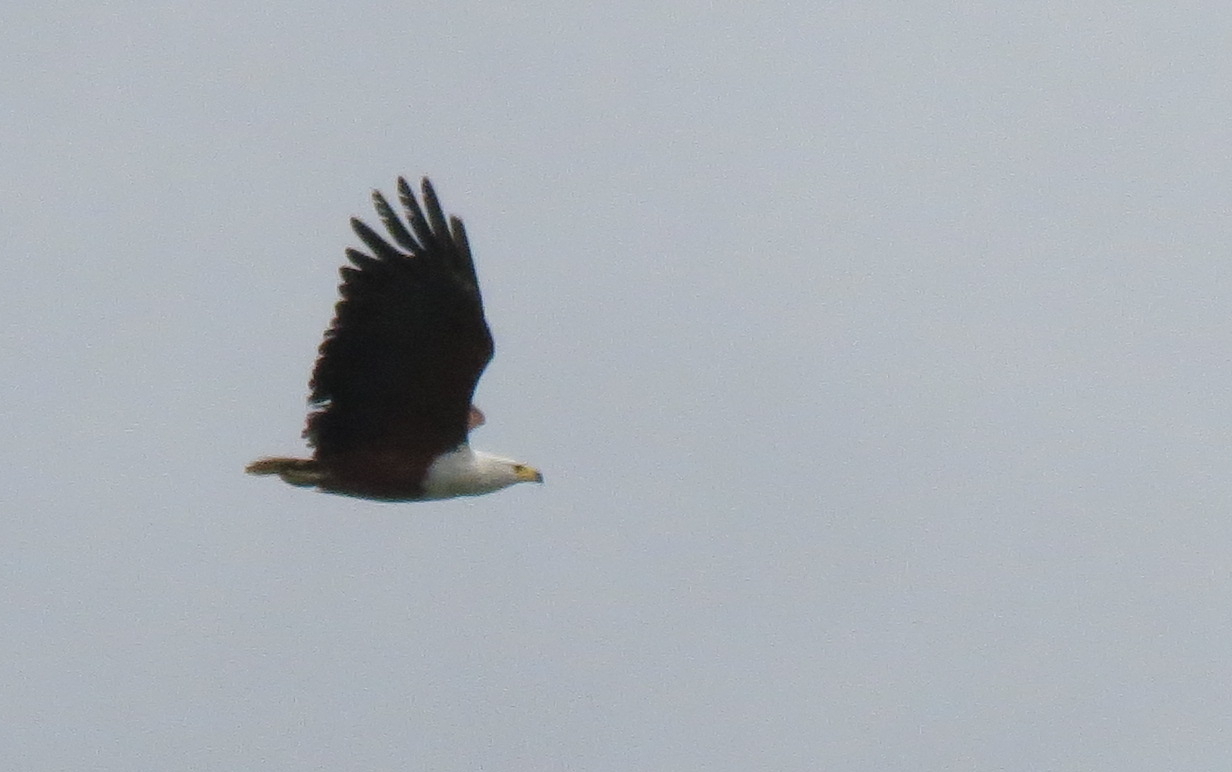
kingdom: Animalia
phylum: Chordata
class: Aves
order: Accipitriformes
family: Accipitridae
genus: Haliaeetus
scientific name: Haliaeetus vocifer
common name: African fish eagle
